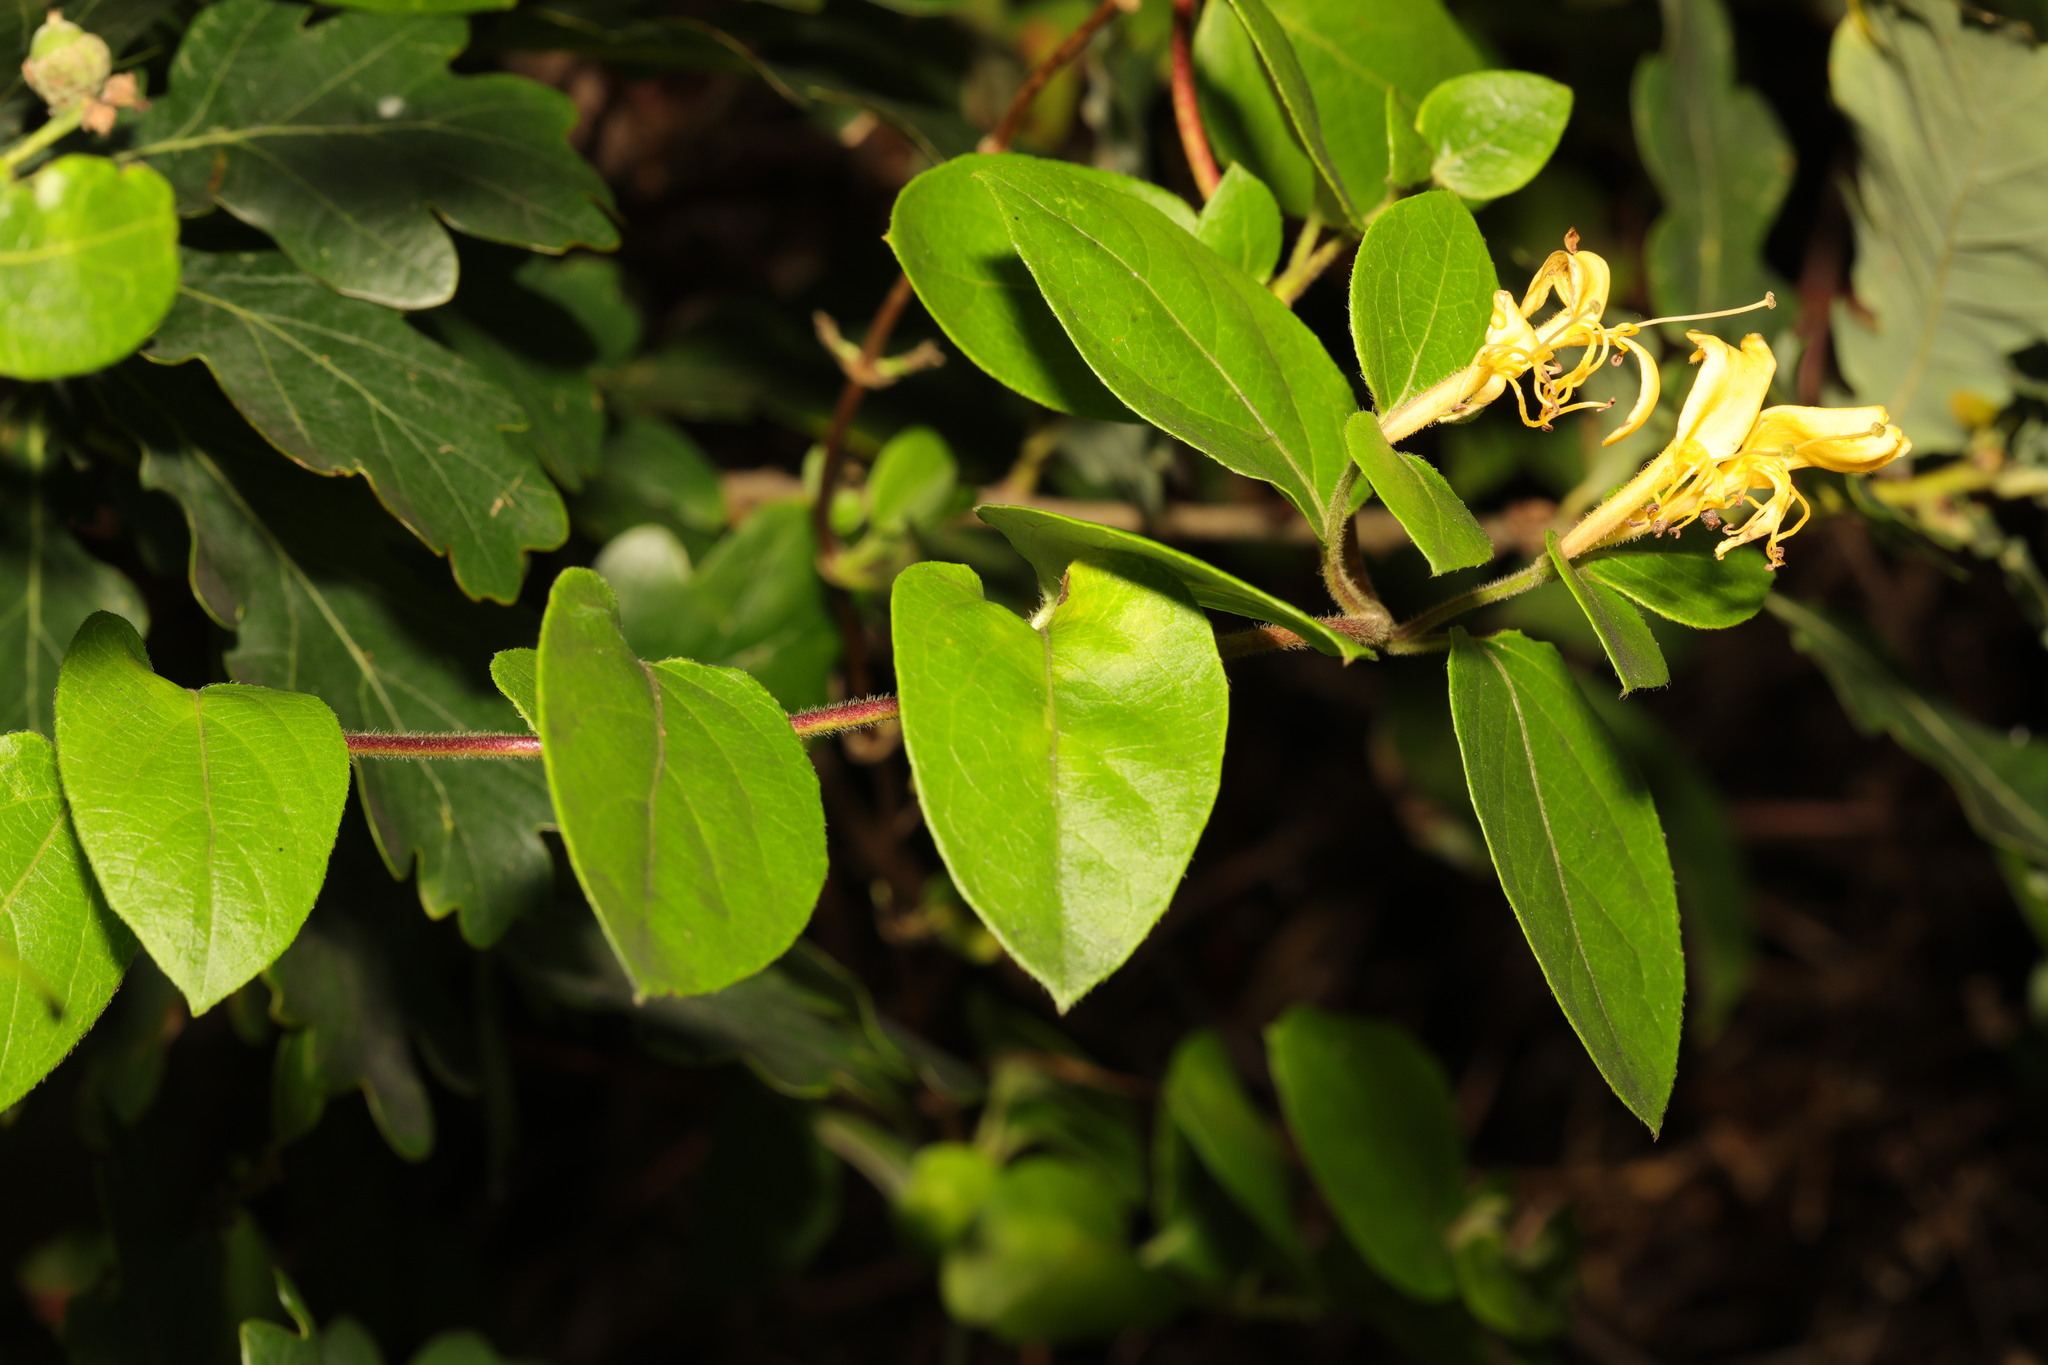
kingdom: Plantae
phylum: Tracheophyta
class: Magnoliopsida
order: Dipsacales
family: Caprifoliaceae
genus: Lonicera
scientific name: Lonicera japonica
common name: Japanese honeysuckle
